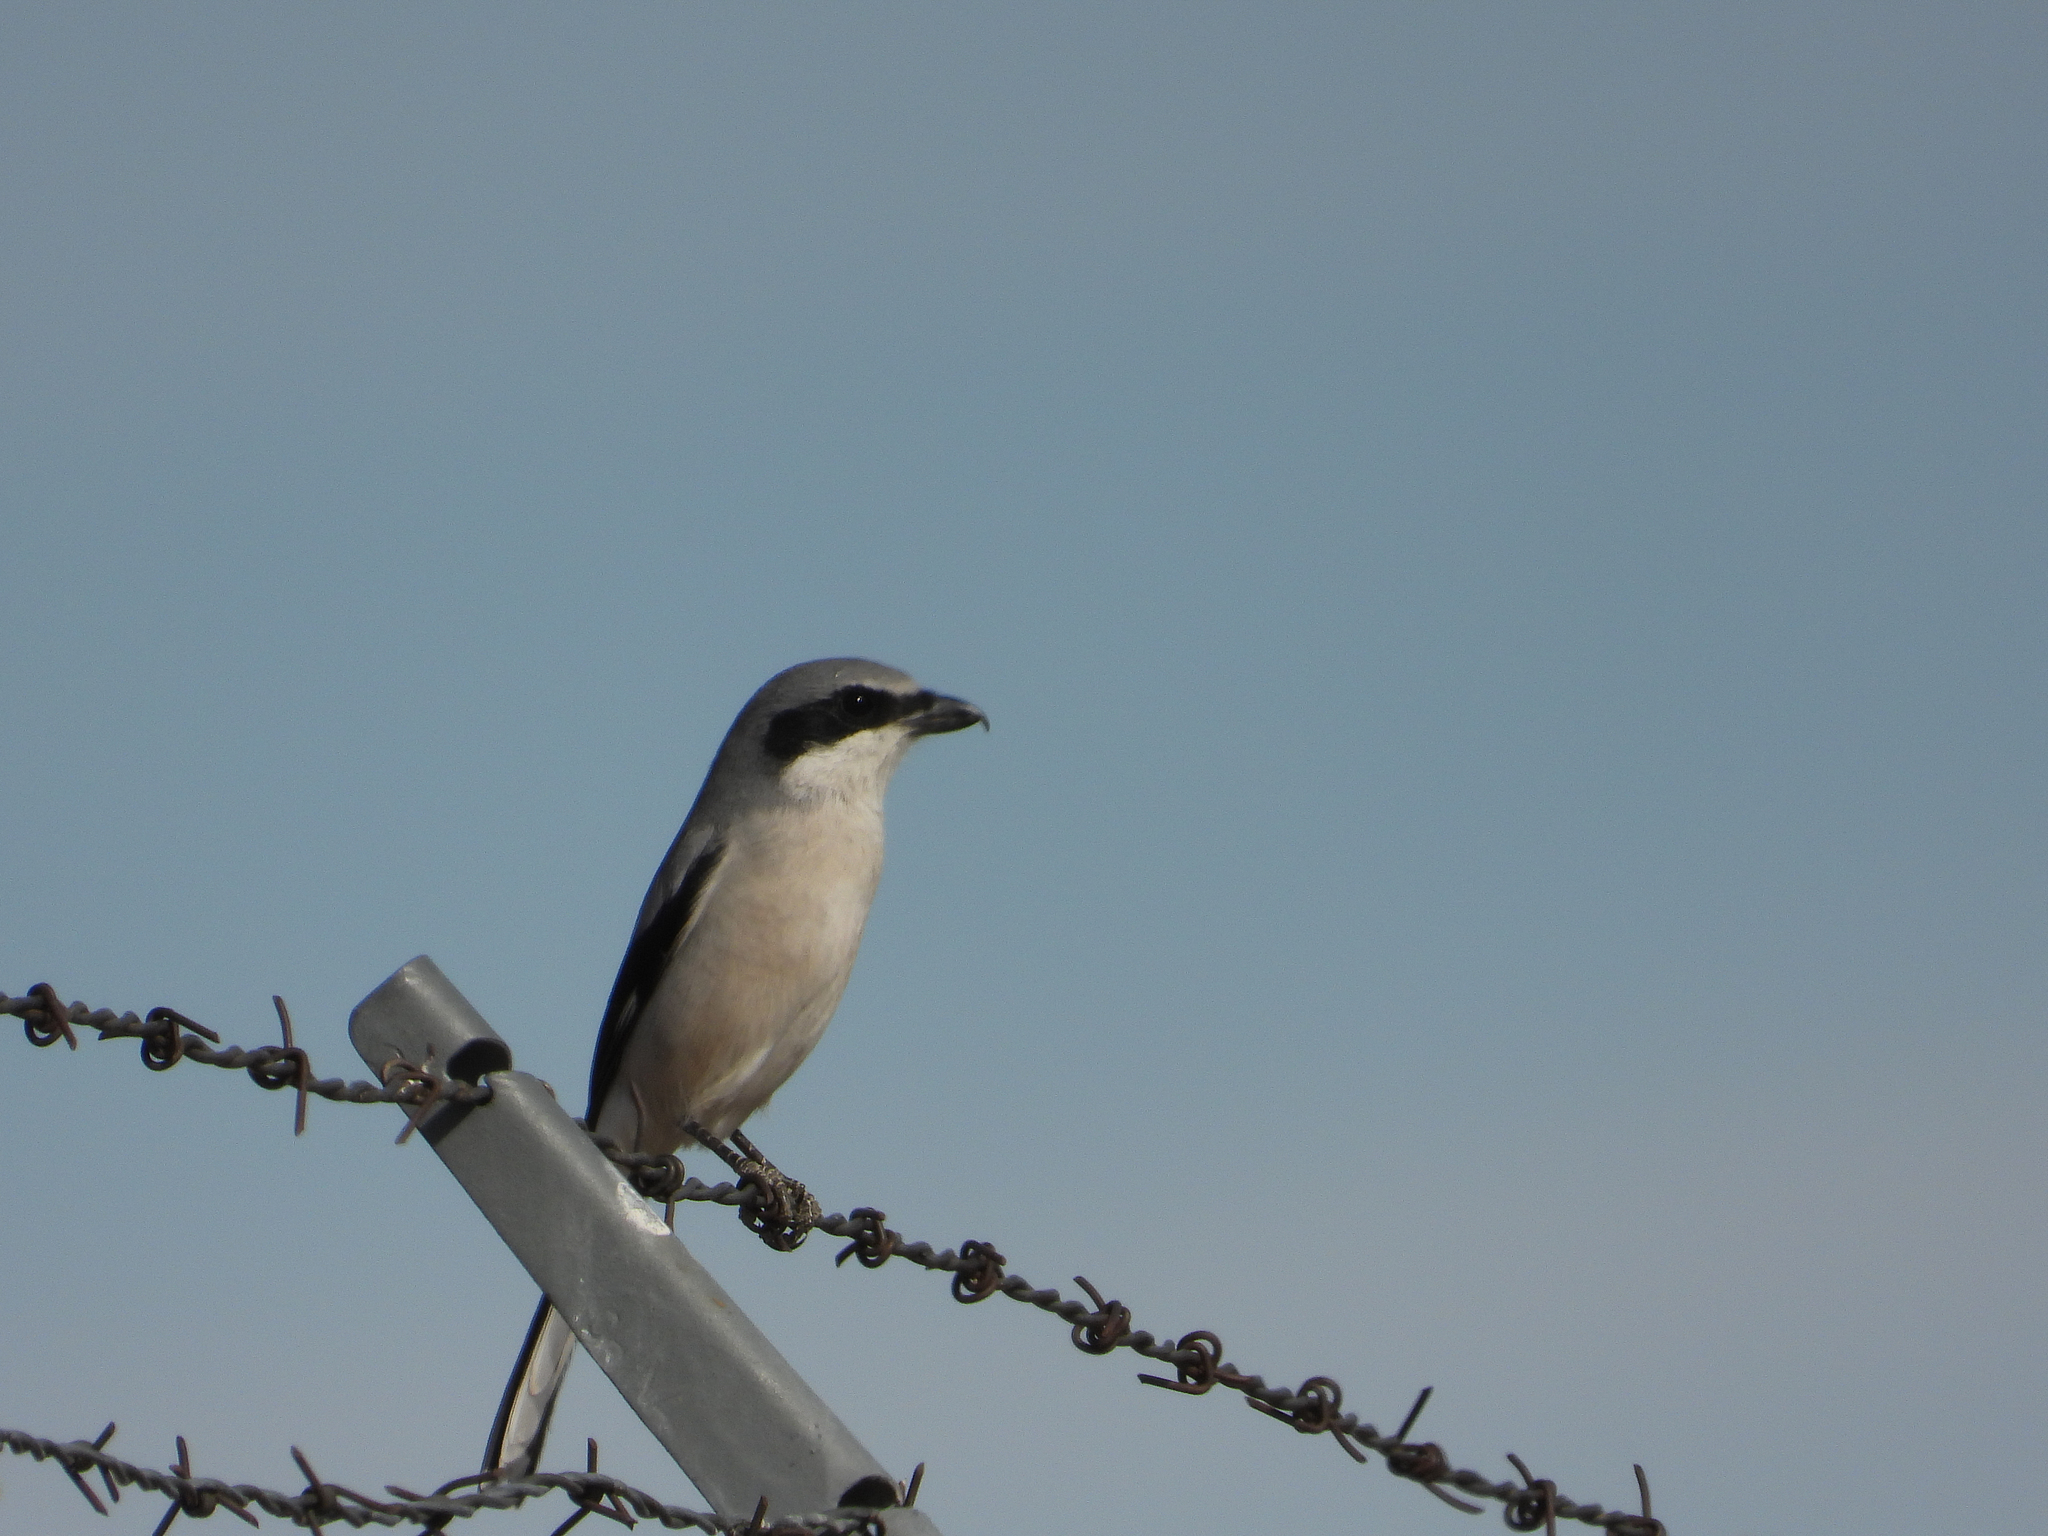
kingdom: Animalia
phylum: Chordata
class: Aves
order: Passeriformes
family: Laniidae
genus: Lanius
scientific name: Lanius ludovicianus
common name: Loggerhead shrike
